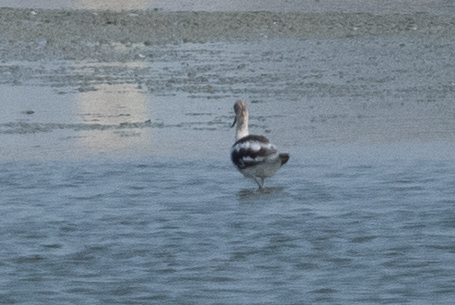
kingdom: Animalia
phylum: Chordata
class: Aves
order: Charadriiformes
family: Recurvirostridae
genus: Recurvirostra
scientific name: Recurvirostra americana
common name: American avocet
